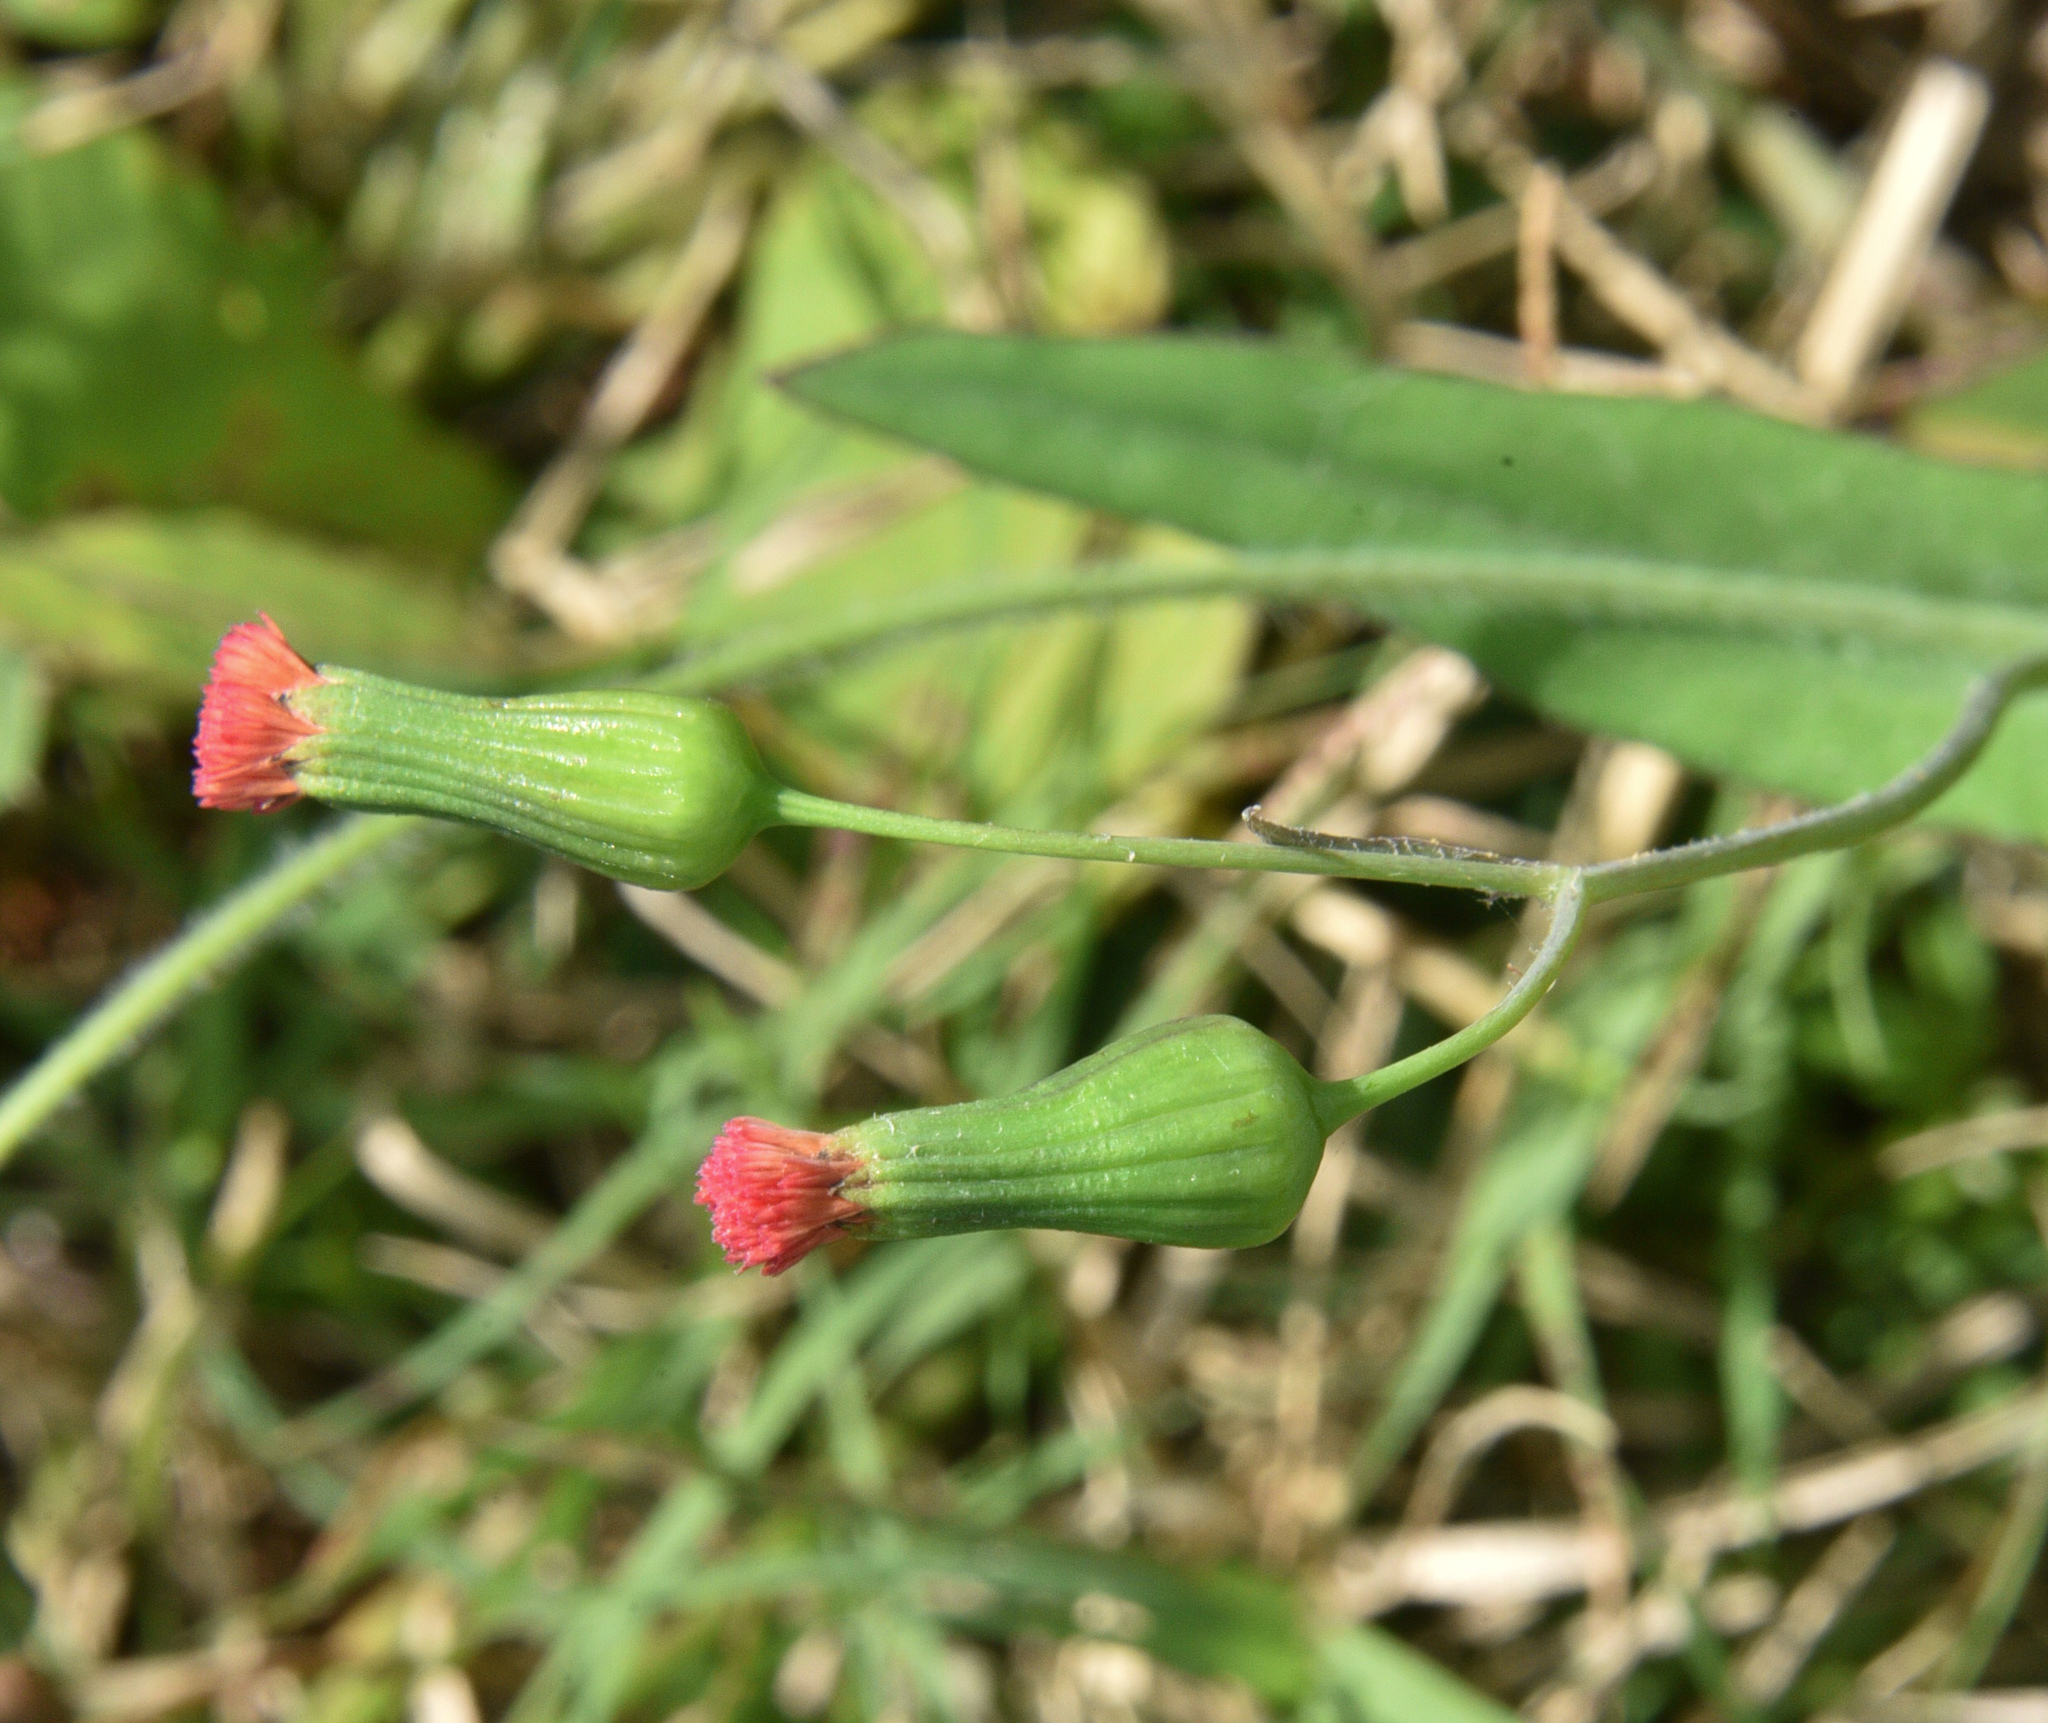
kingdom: Plantae
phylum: Tracheophyta
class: Magnoliopsida
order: Asterales
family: Asteraceae
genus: Emilia
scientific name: Emilia fosbergii
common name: Florida tasselflower
